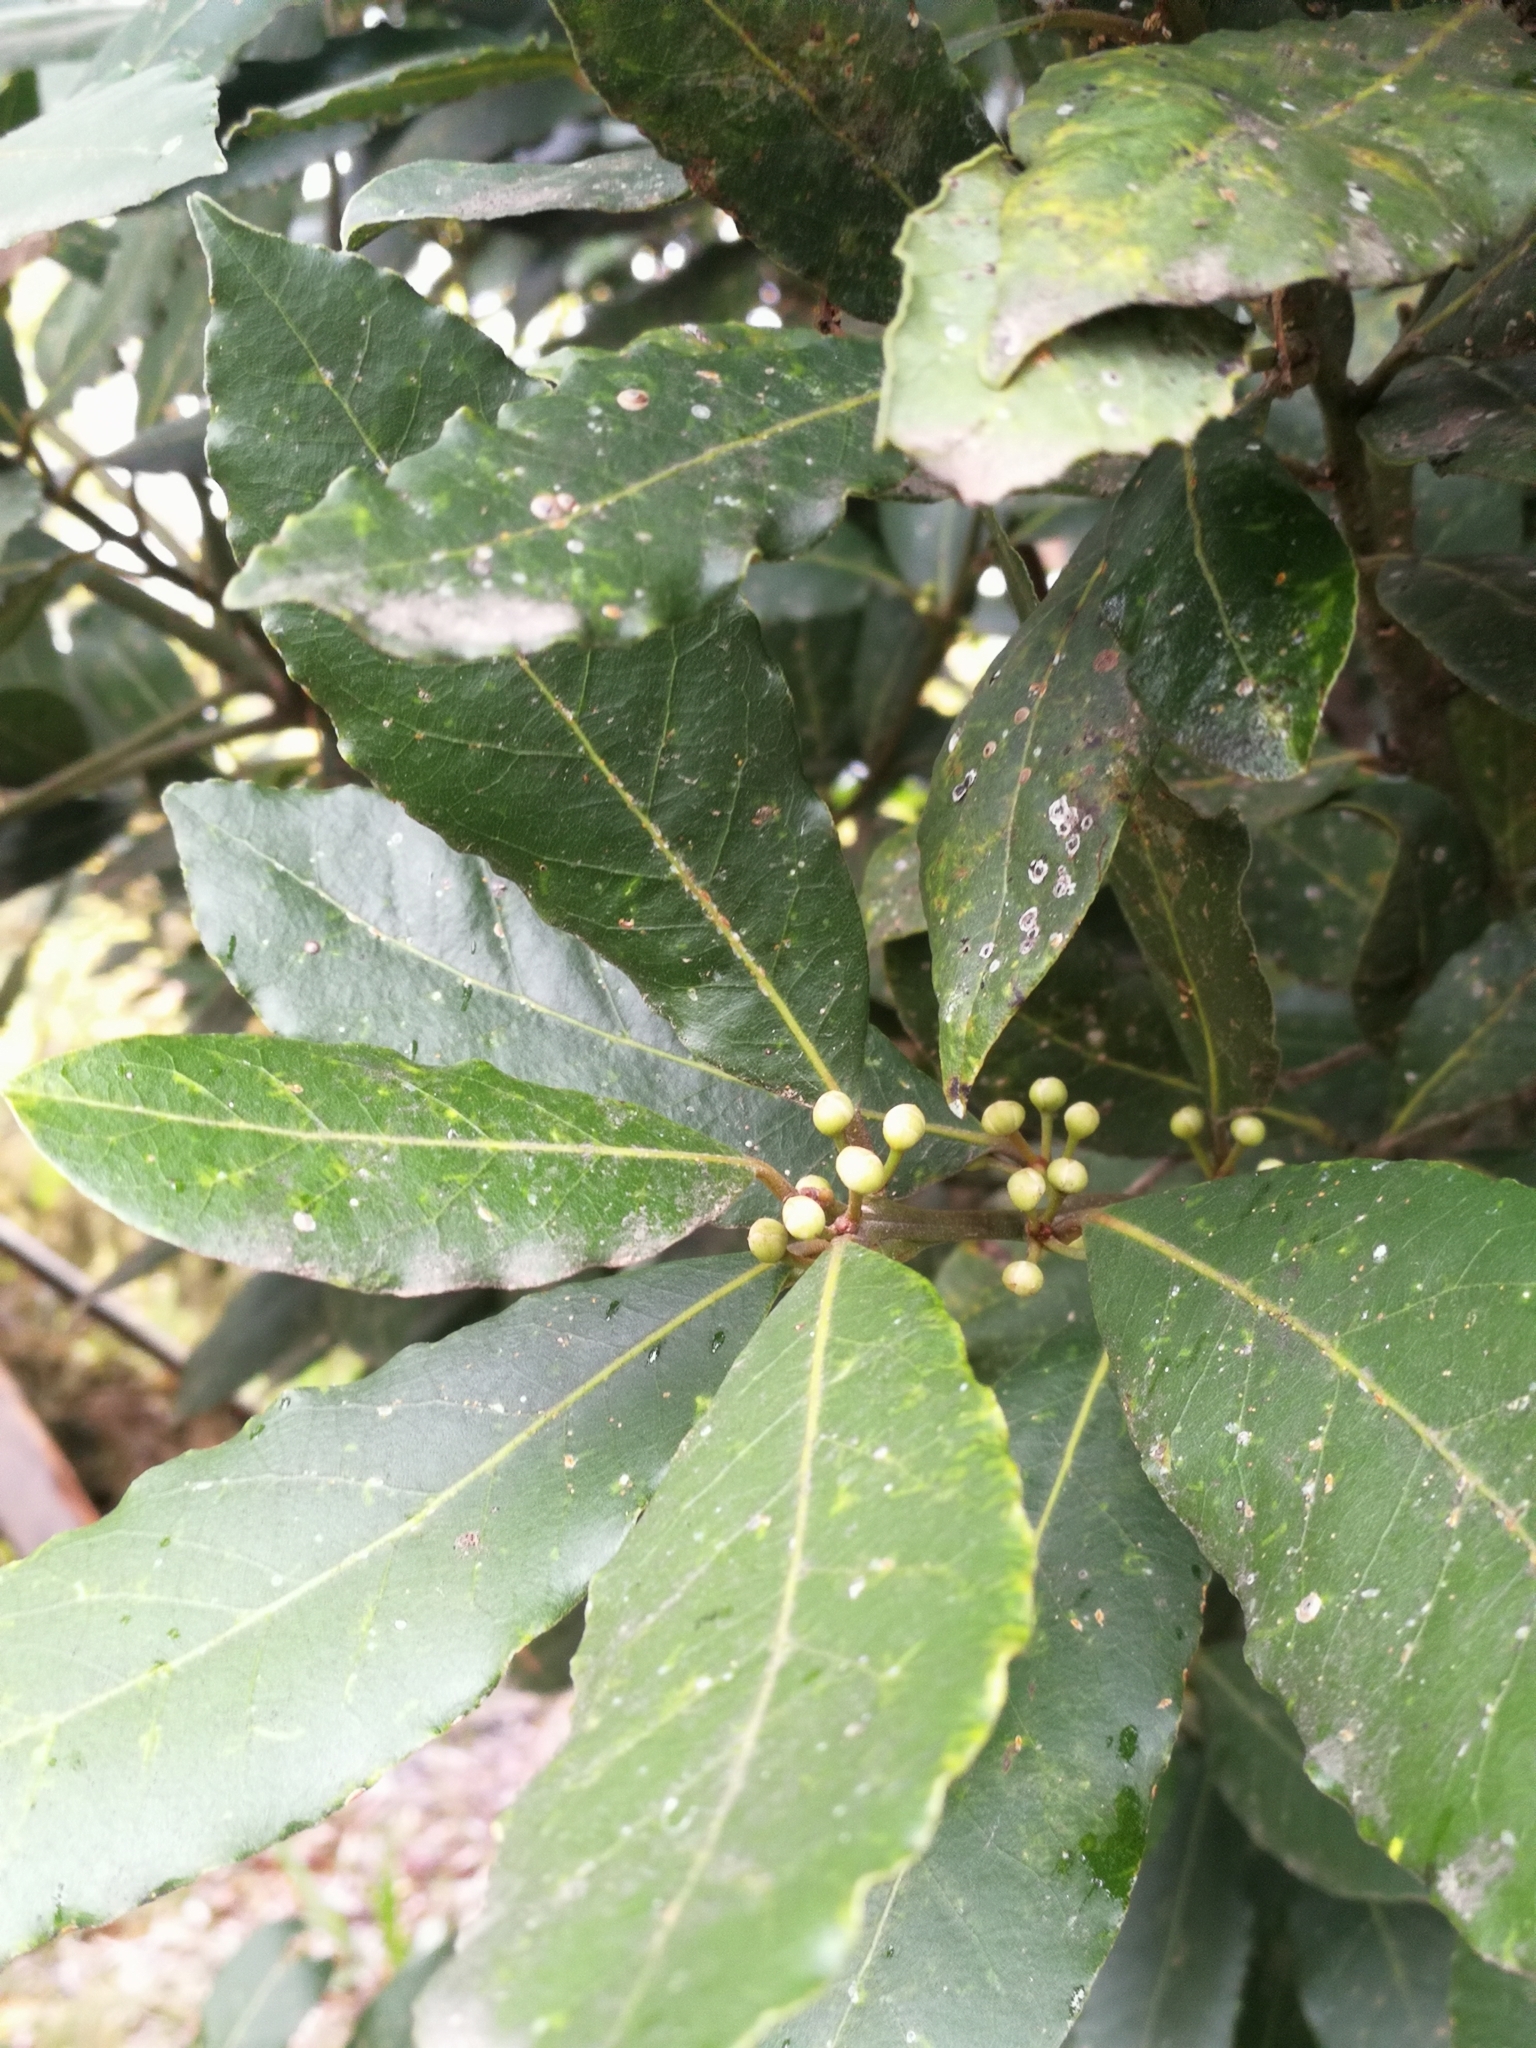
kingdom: Plantae
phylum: Tracheophyta
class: Magnoliopsida
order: Laurales
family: Lauraceae
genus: Laurus
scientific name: Laurus nobilis
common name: Bay
